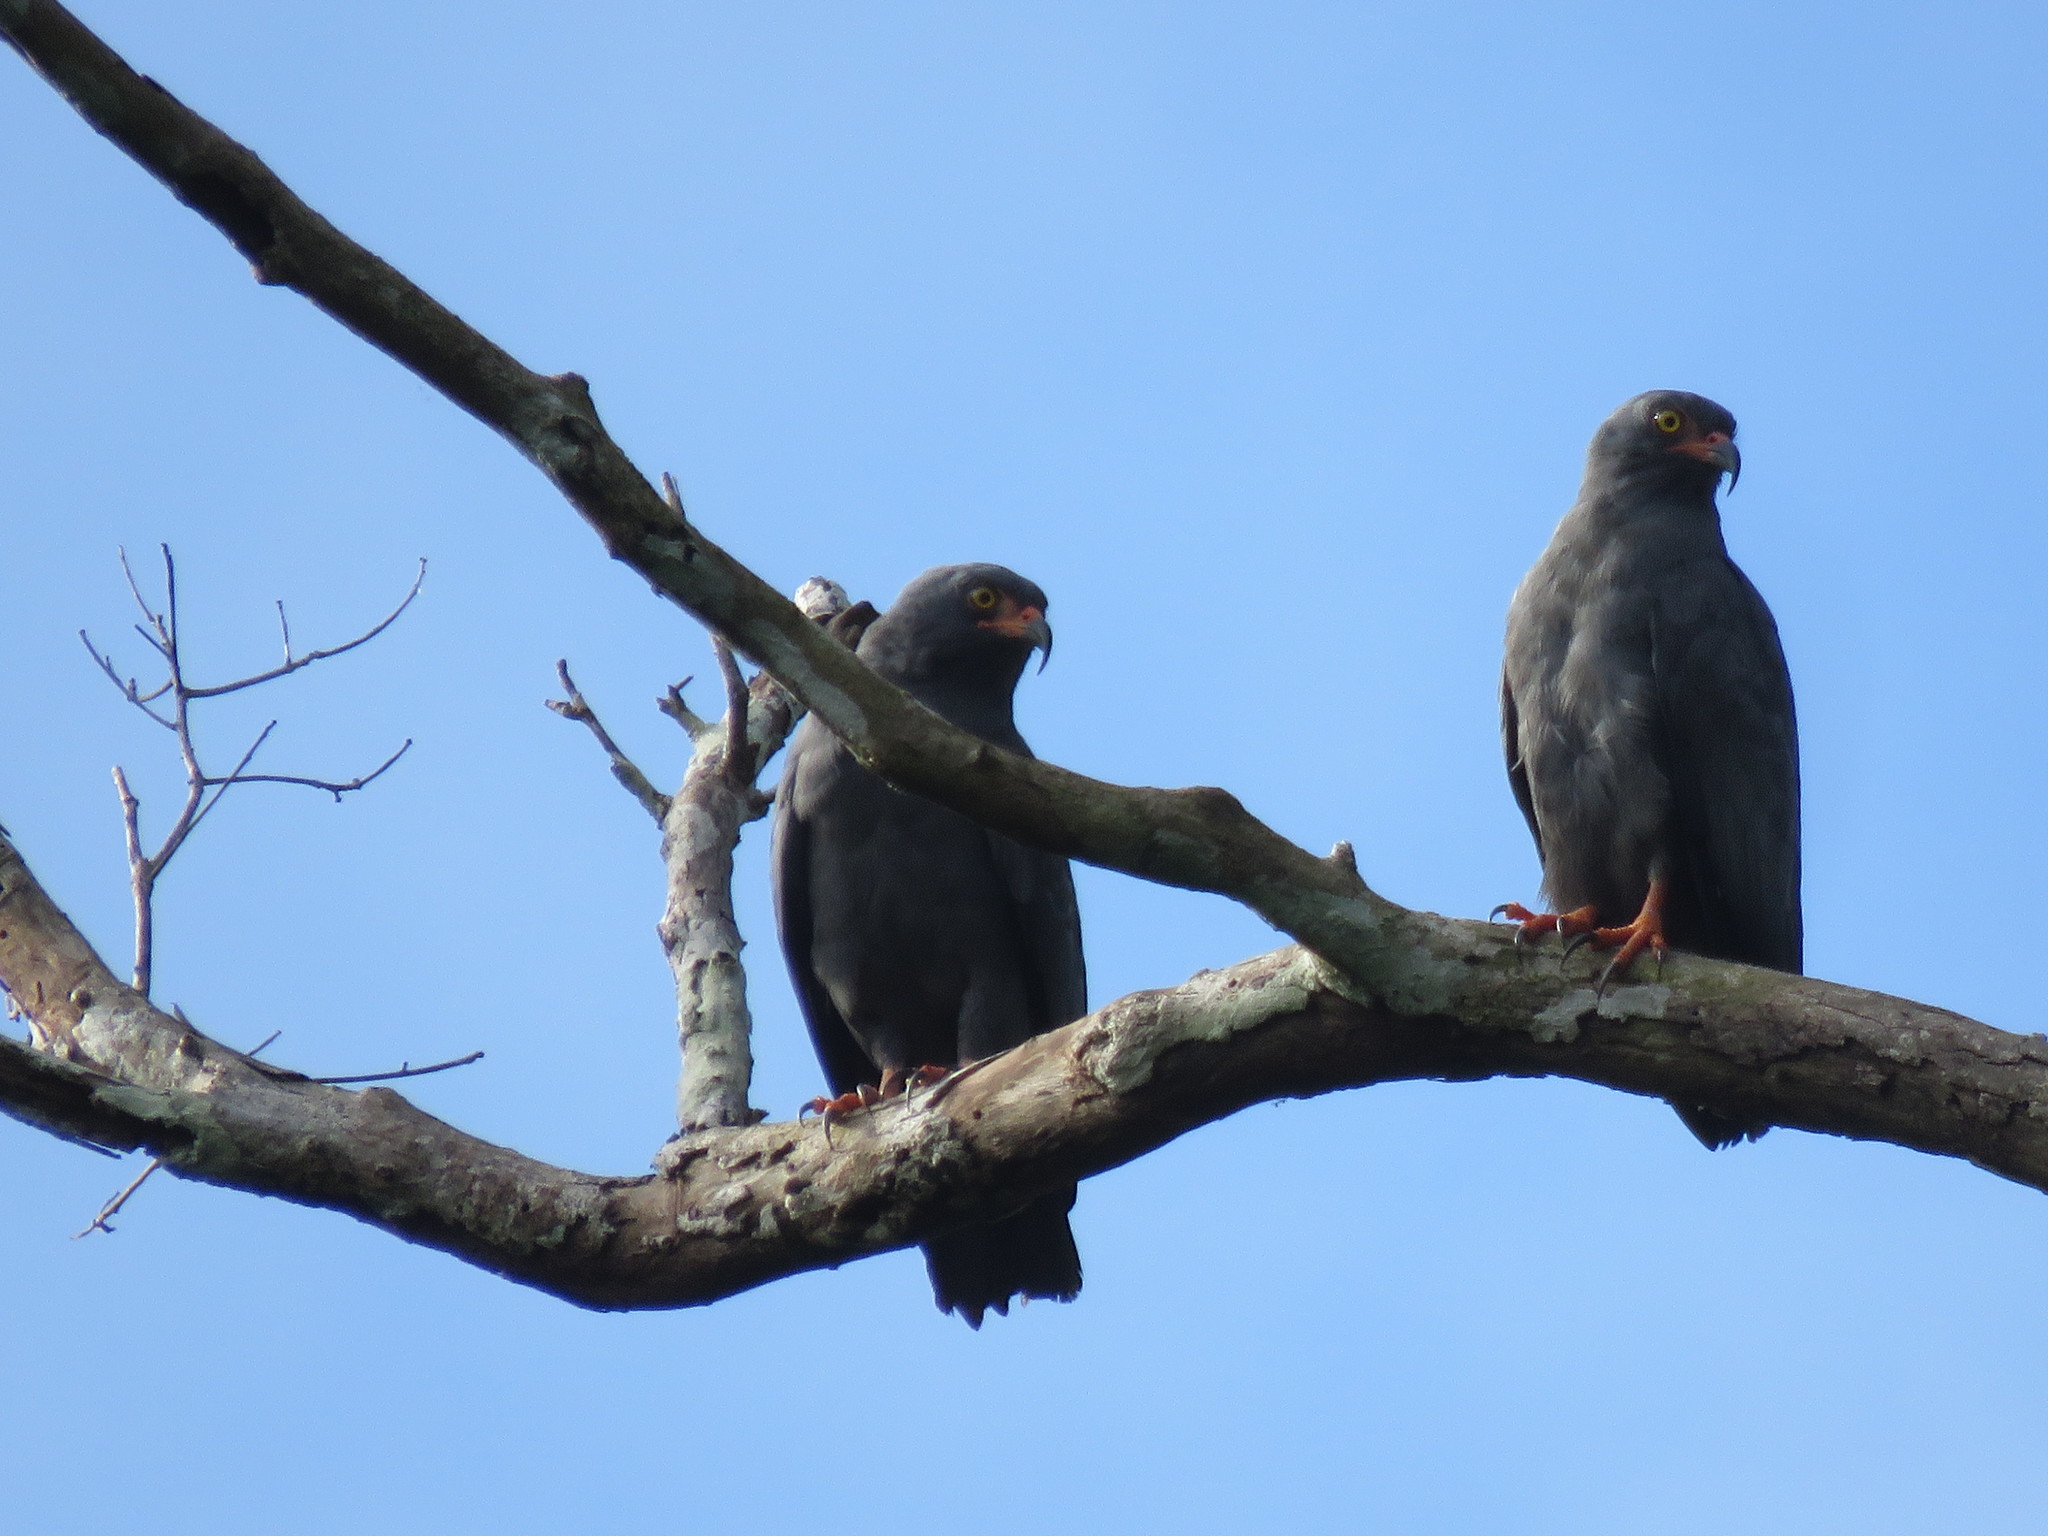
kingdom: Animalia
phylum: Chordata
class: Aves
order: Accipitriformes
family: Accipitridae
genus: Helicolestes
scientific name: Helicolestes hamatus
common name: Slender-billed kite
